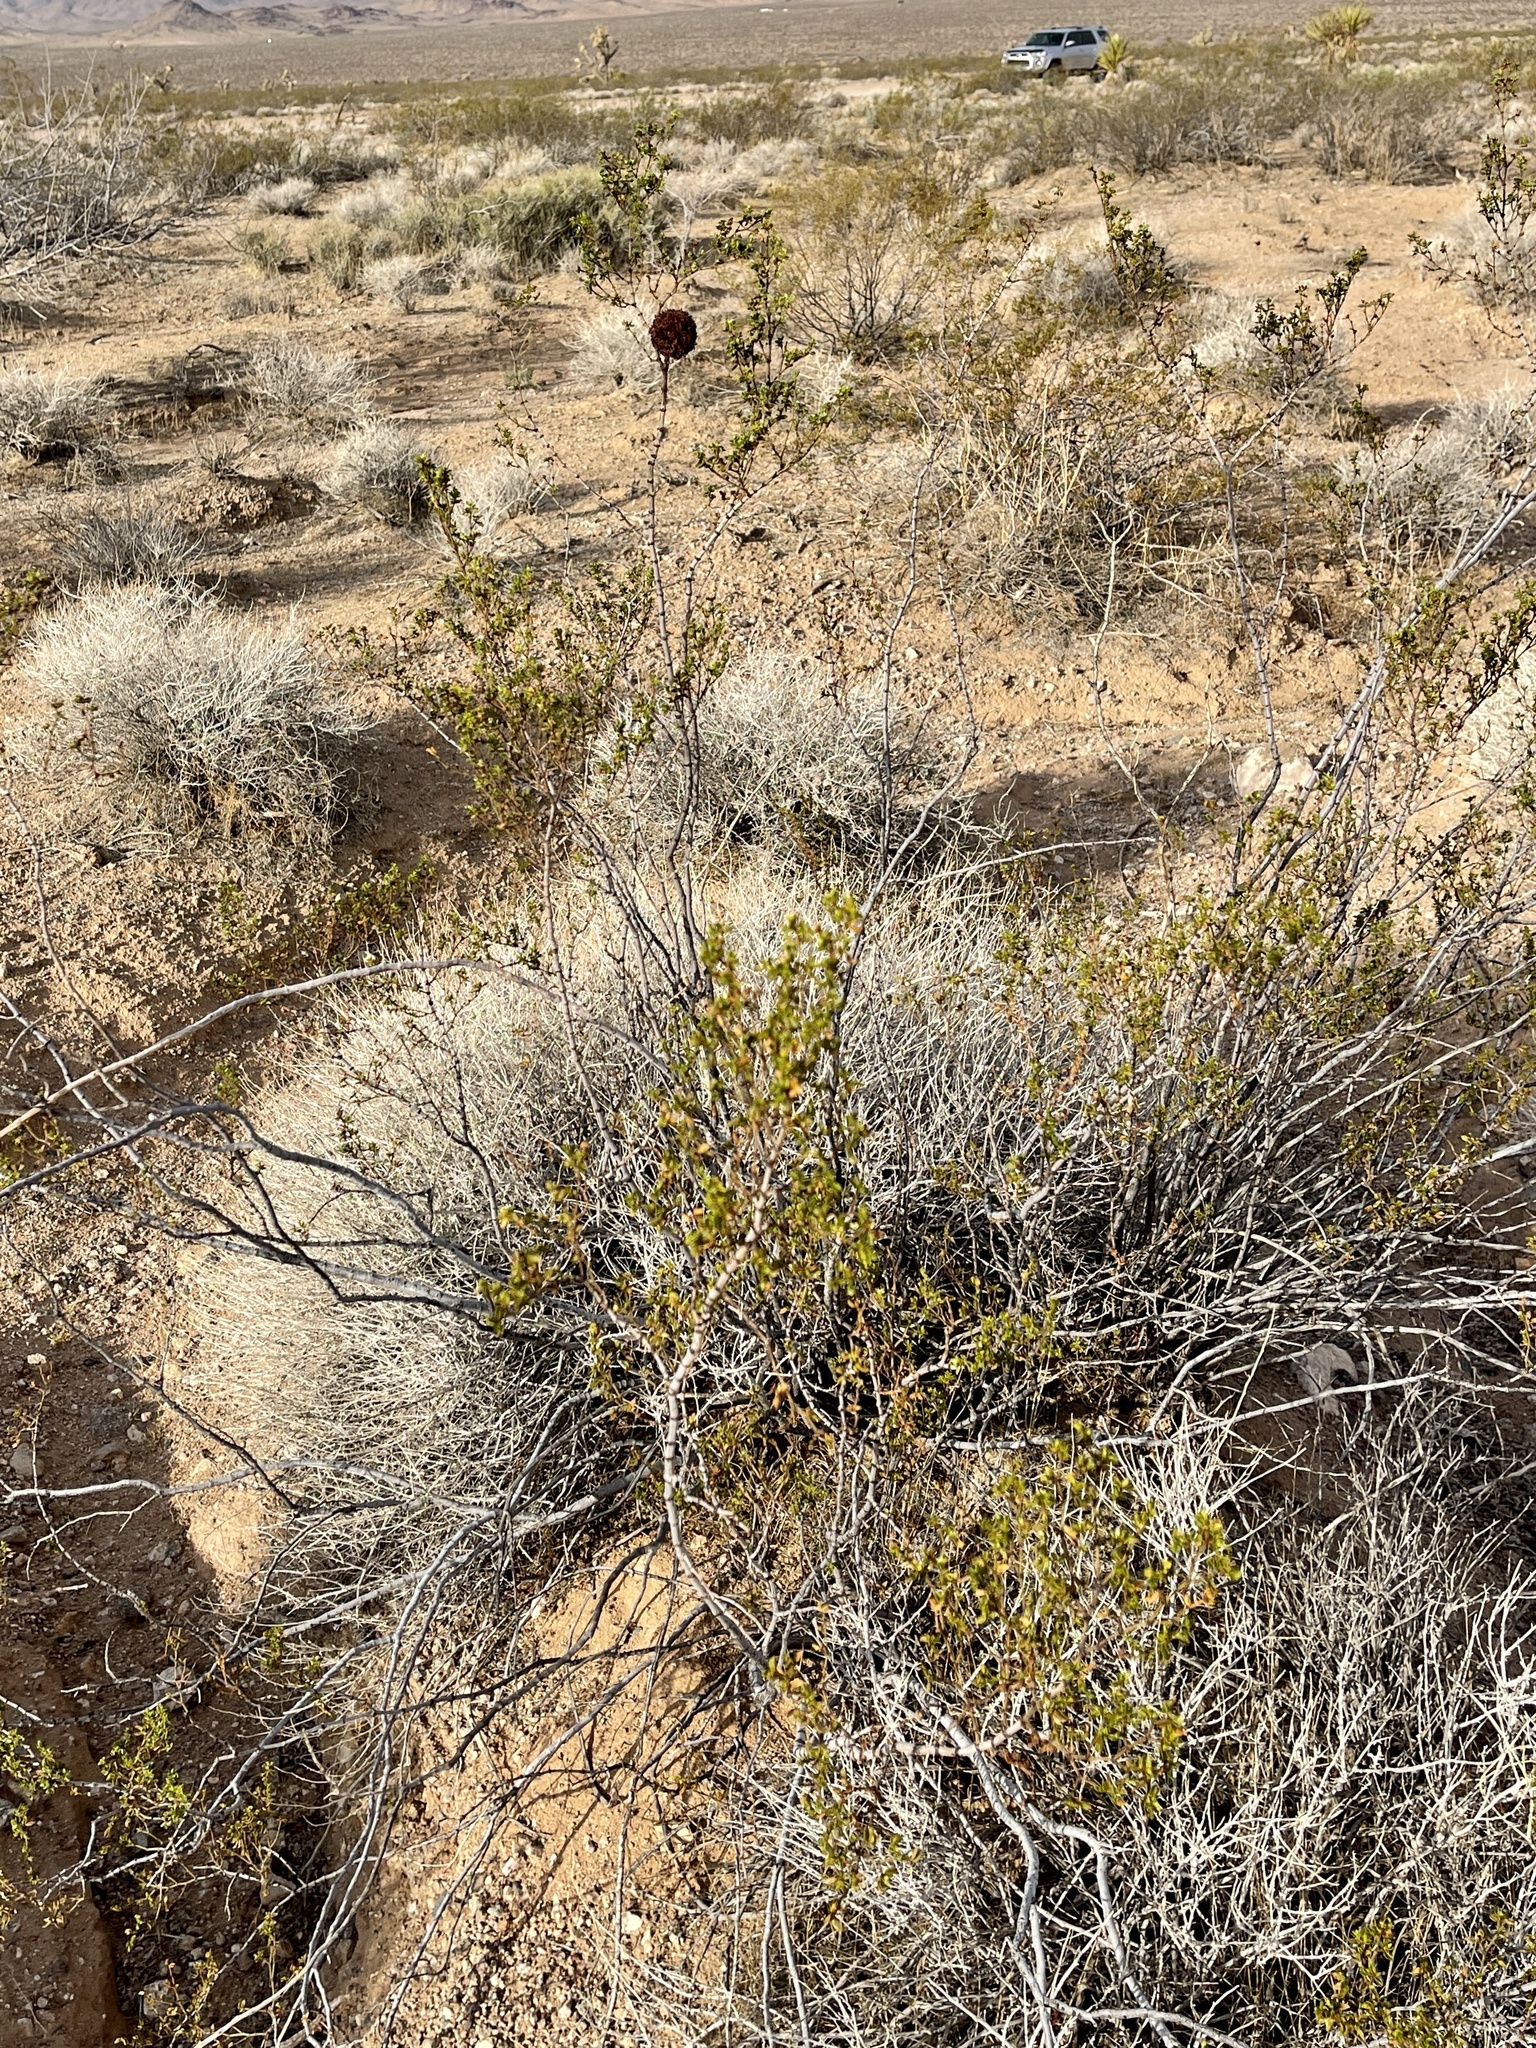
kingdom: Plantae
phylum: Tracheophyta
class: Magnoliopsida
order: Zygophyllales
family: Zygophyllaceae
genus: Larrea
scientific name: Larrea tridentata
